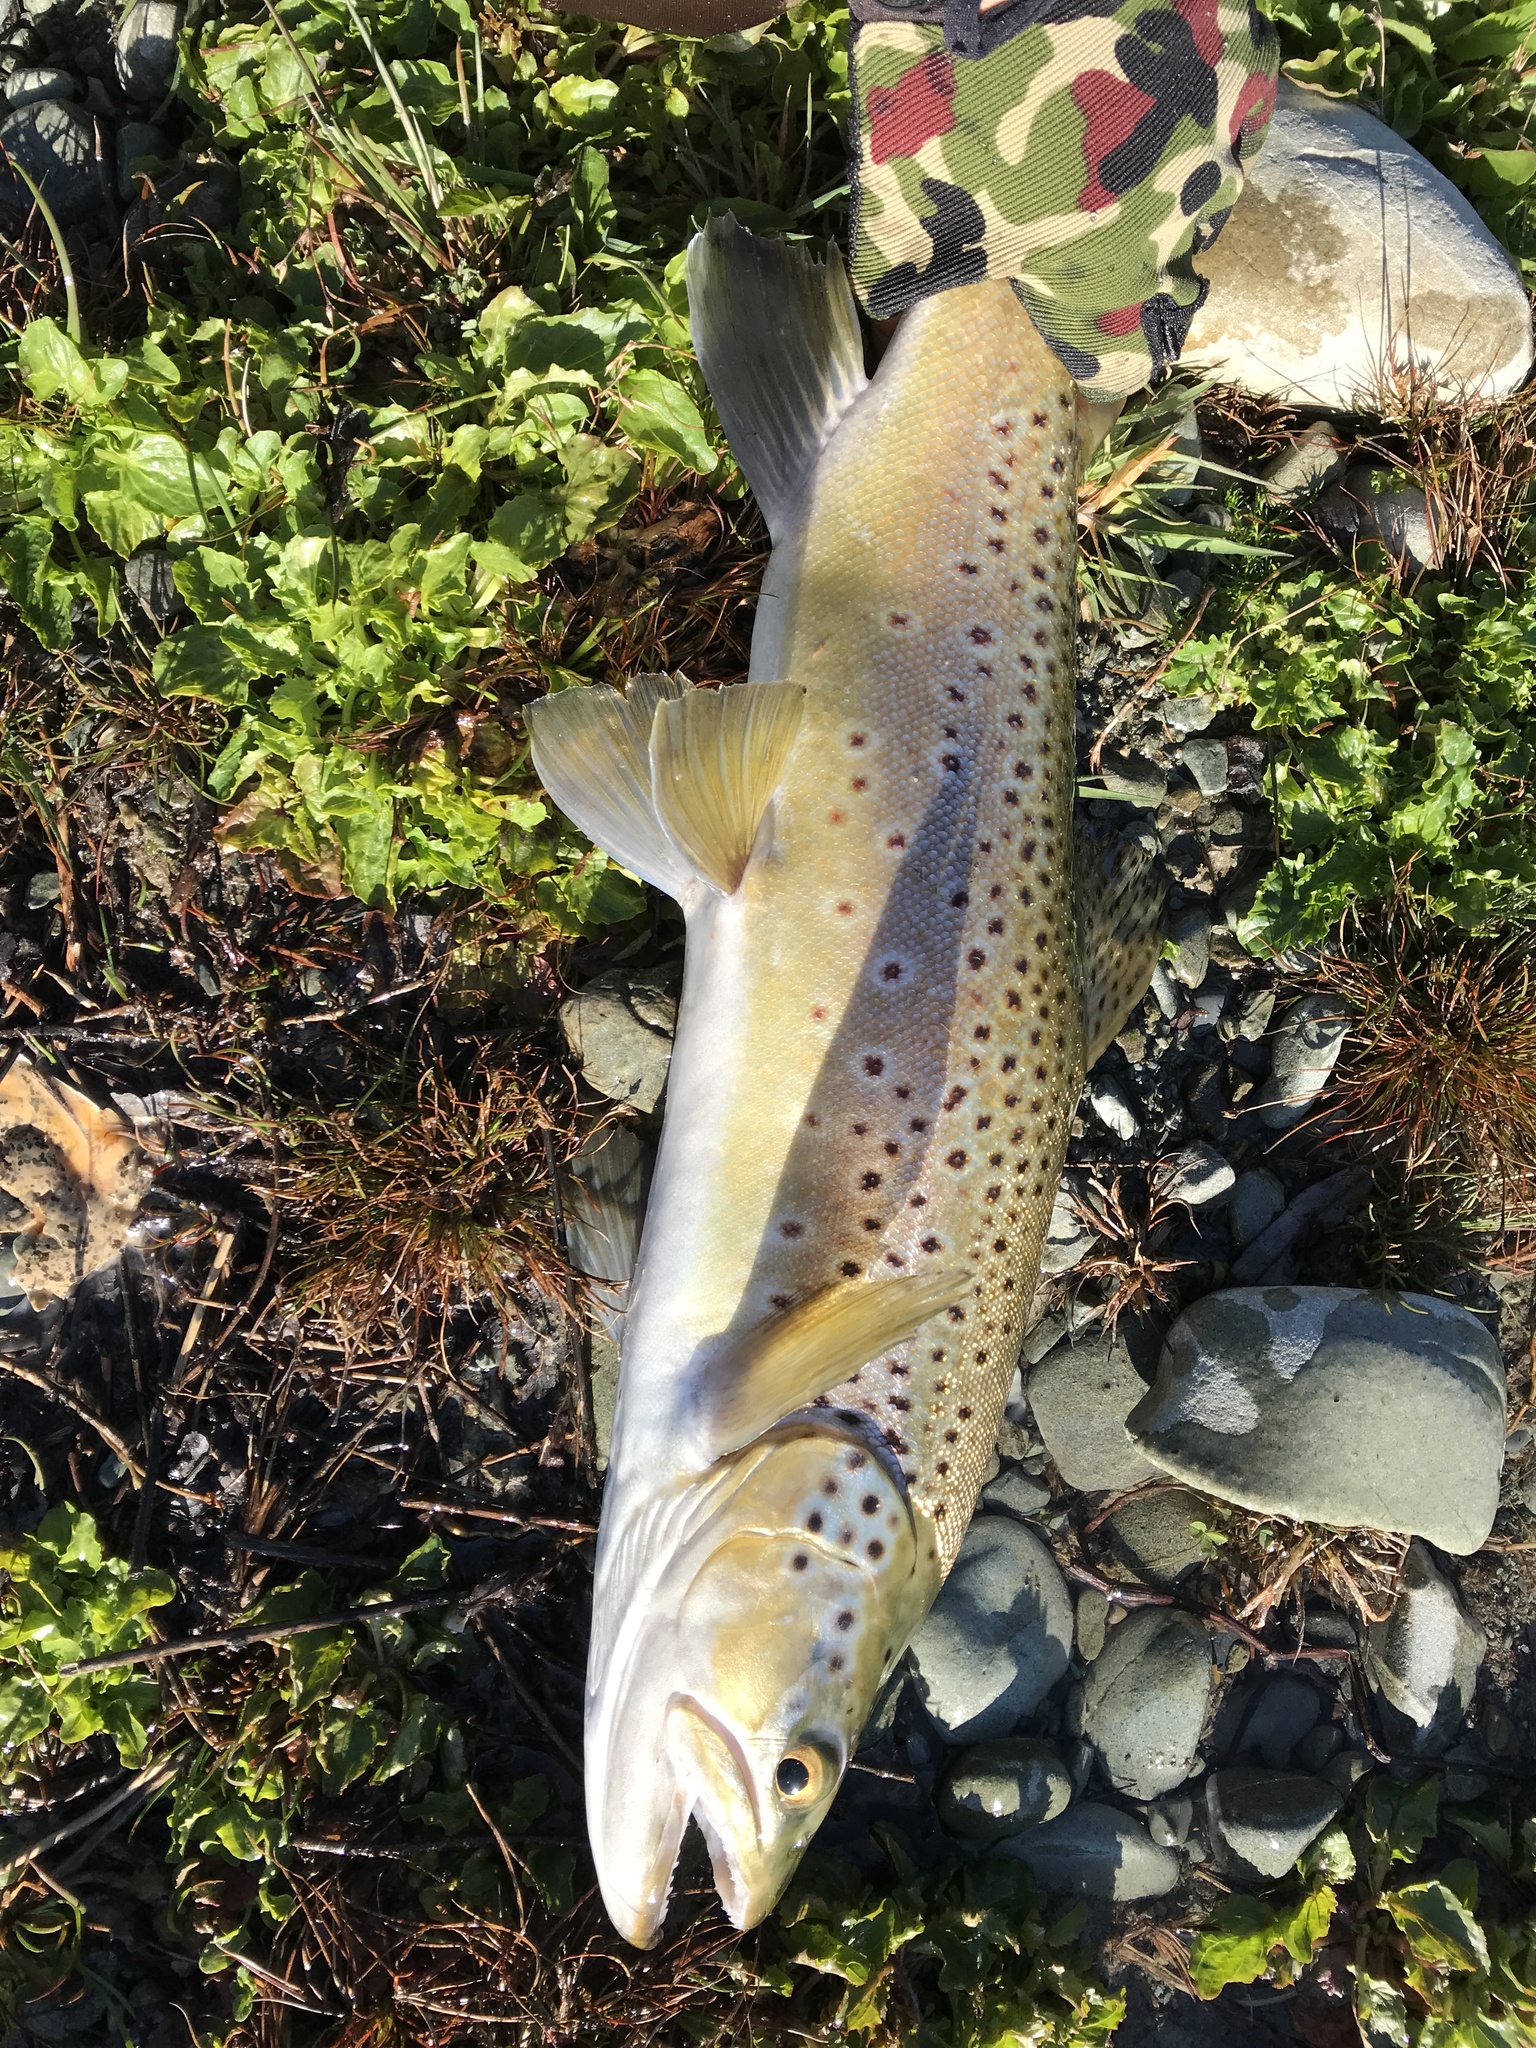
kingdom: Animalia
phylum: Chordata
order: Salmoniformes
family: Salmonidae
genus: Salmo
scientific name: Salmo trutta
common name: Brown trout
